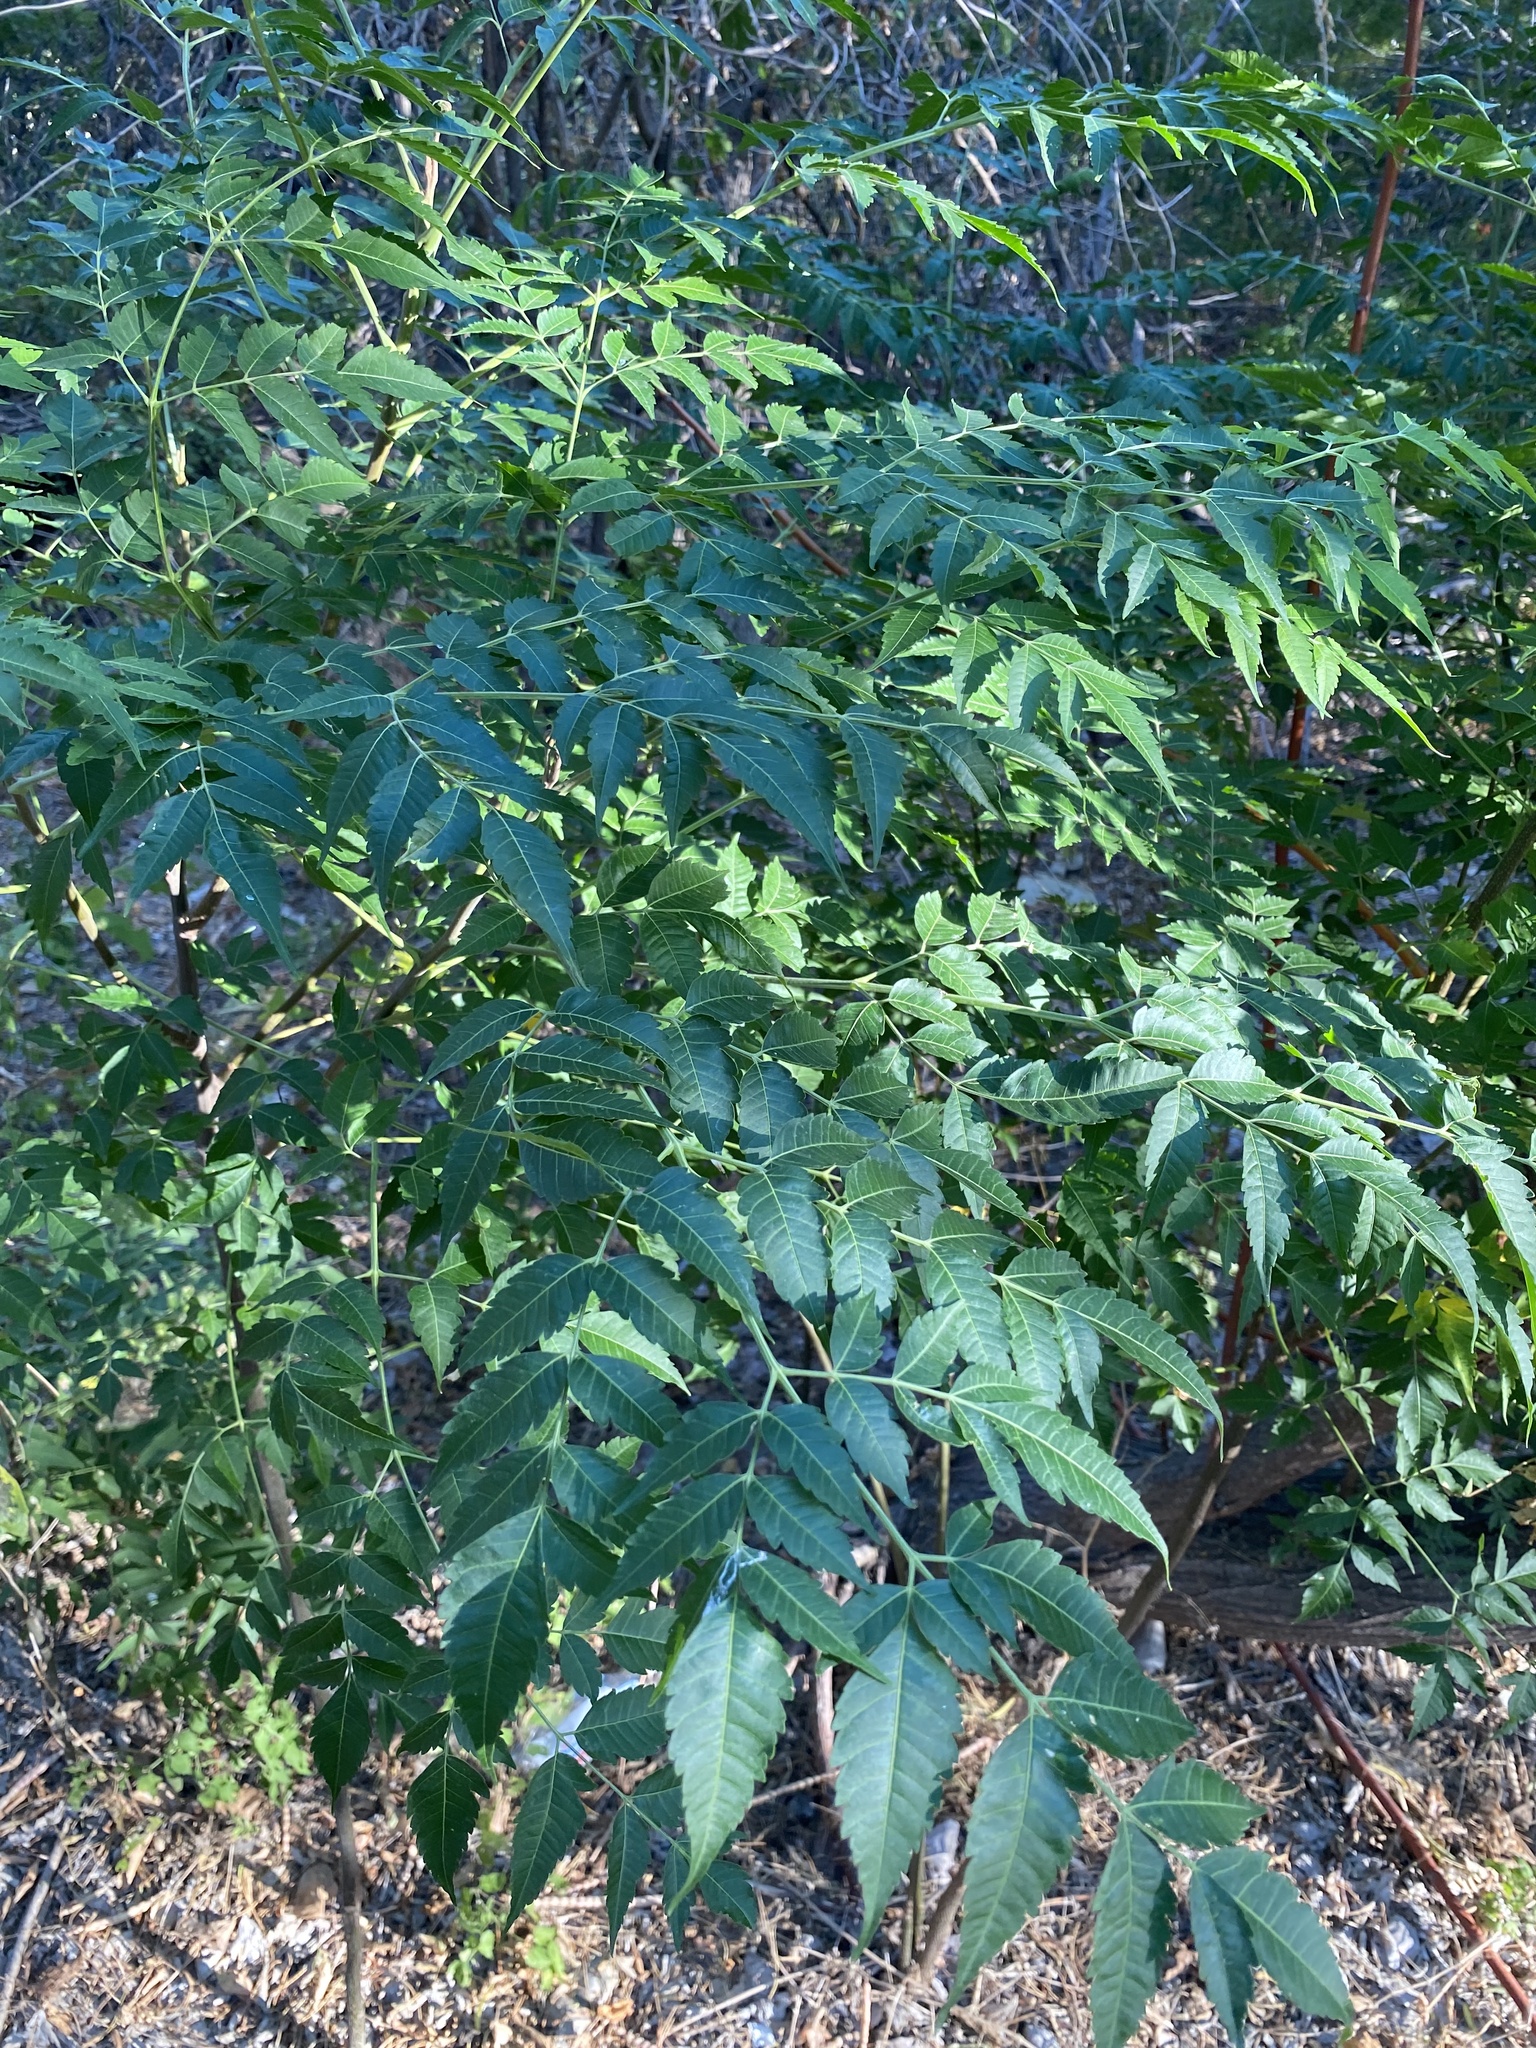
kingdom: Plantae
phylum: Tracheophyta
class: Magnoliopsida
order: Sapindales
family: Meliaceae
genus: Melia
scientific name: Melia azedarach
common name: Chinaberrytree
